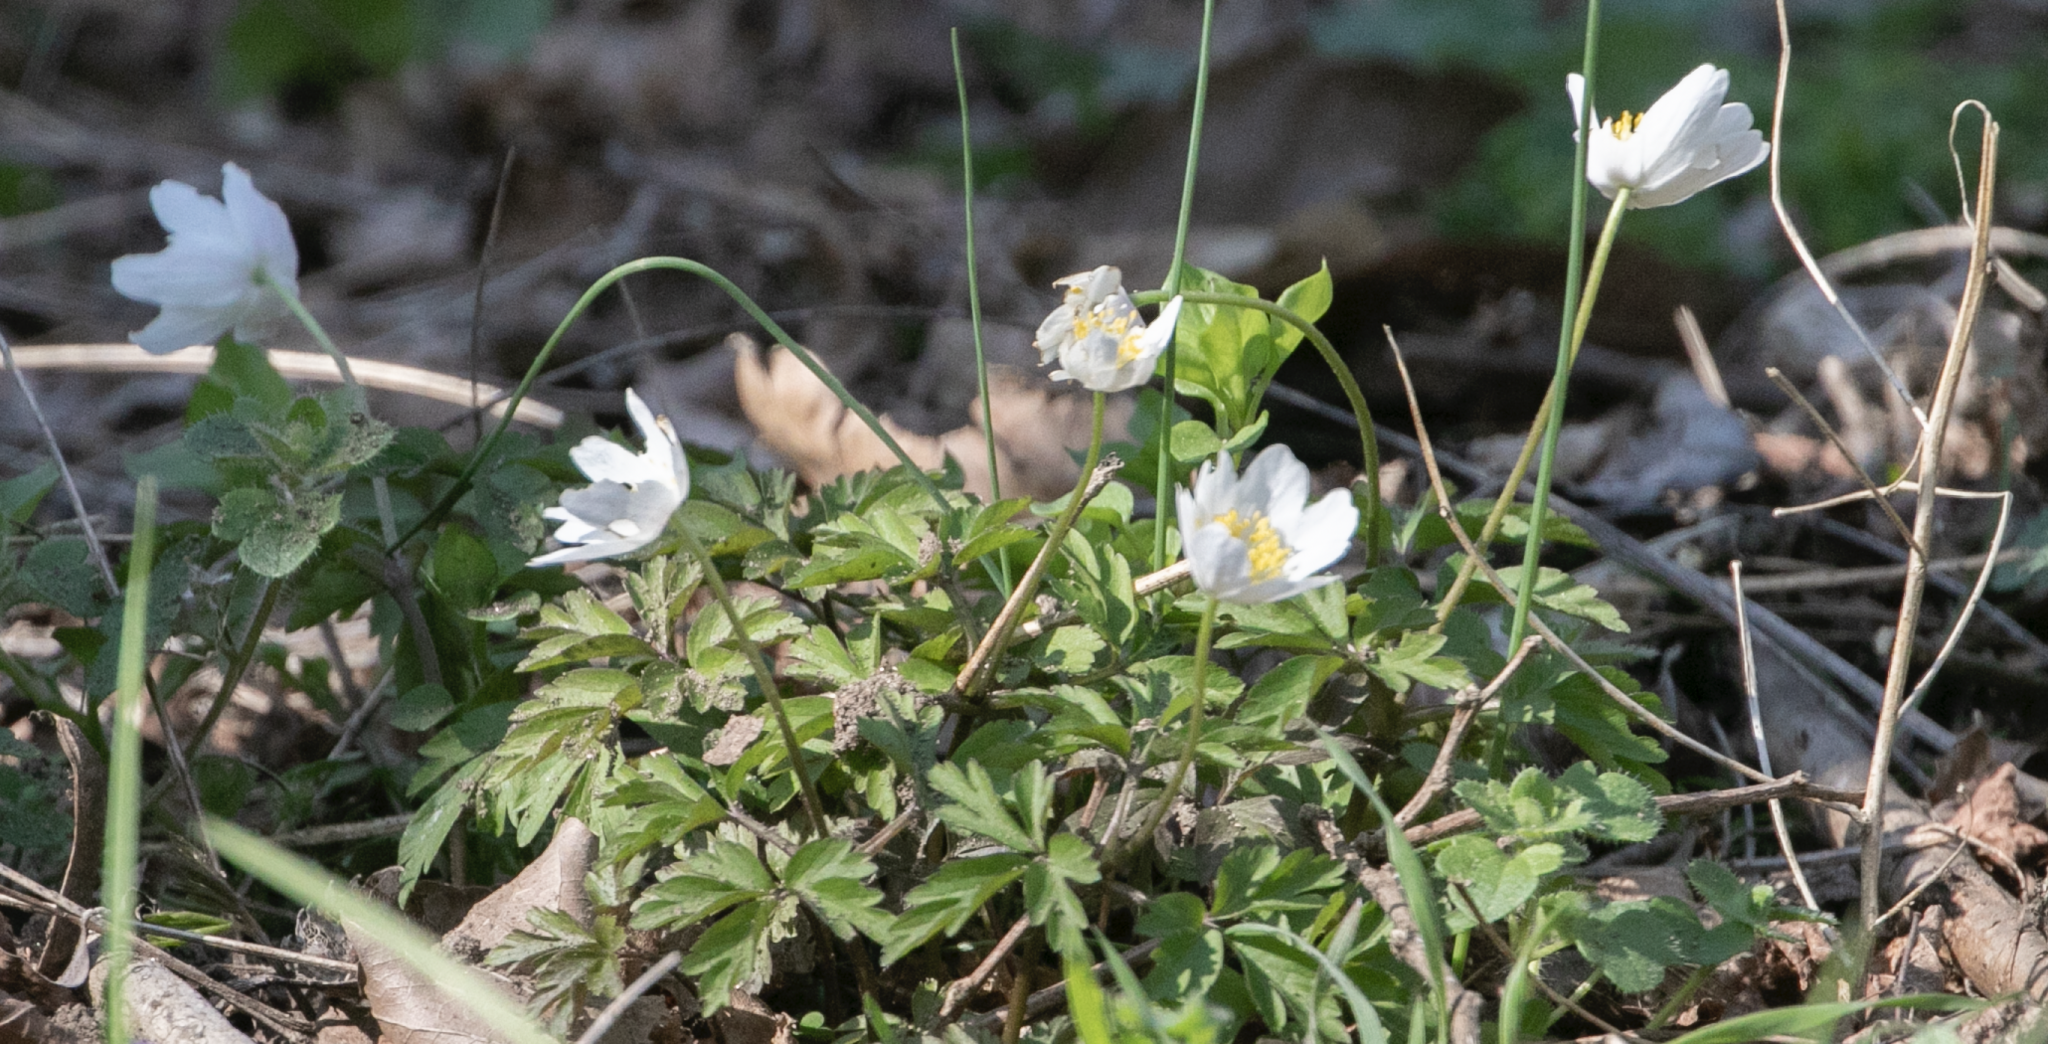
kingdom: Plantae
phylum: Tracheophyta
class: Magnoliopsida
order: Ranunculales
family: Ranunculaceae
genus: Anemone
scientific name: Anemone nemorosa
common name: Wood anemone
